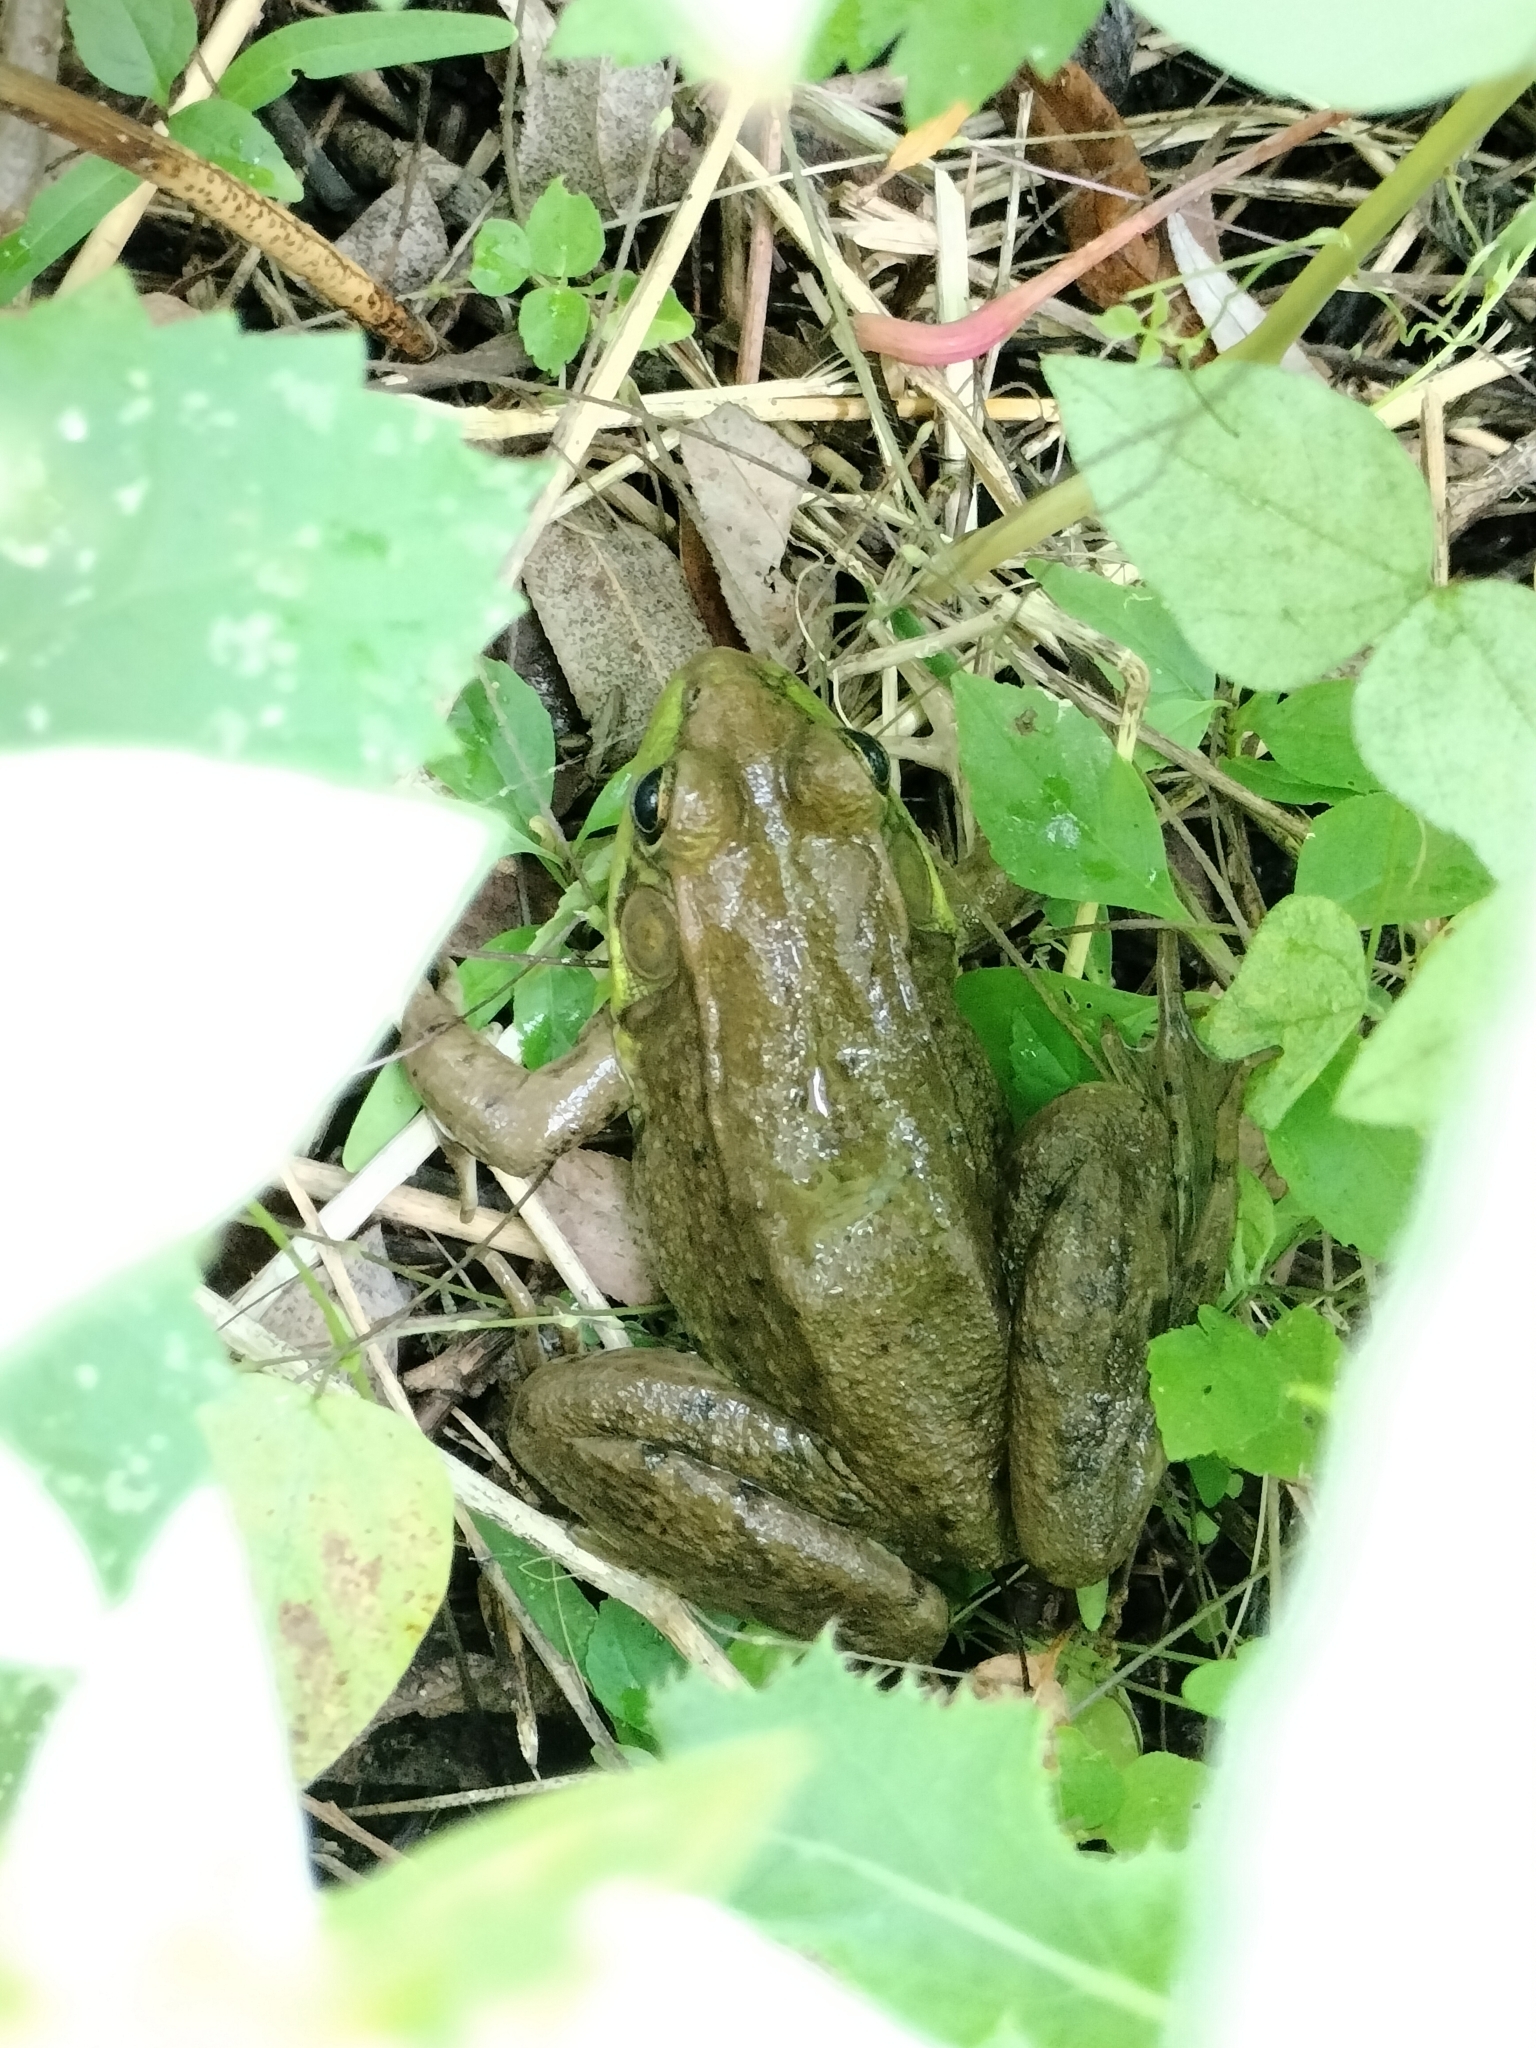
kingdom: Animalia
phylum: Chordata
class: Amphibia
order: Anura
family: Ranidae
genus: Lithobates
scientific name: Lithobates clamitans
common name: Green frog
